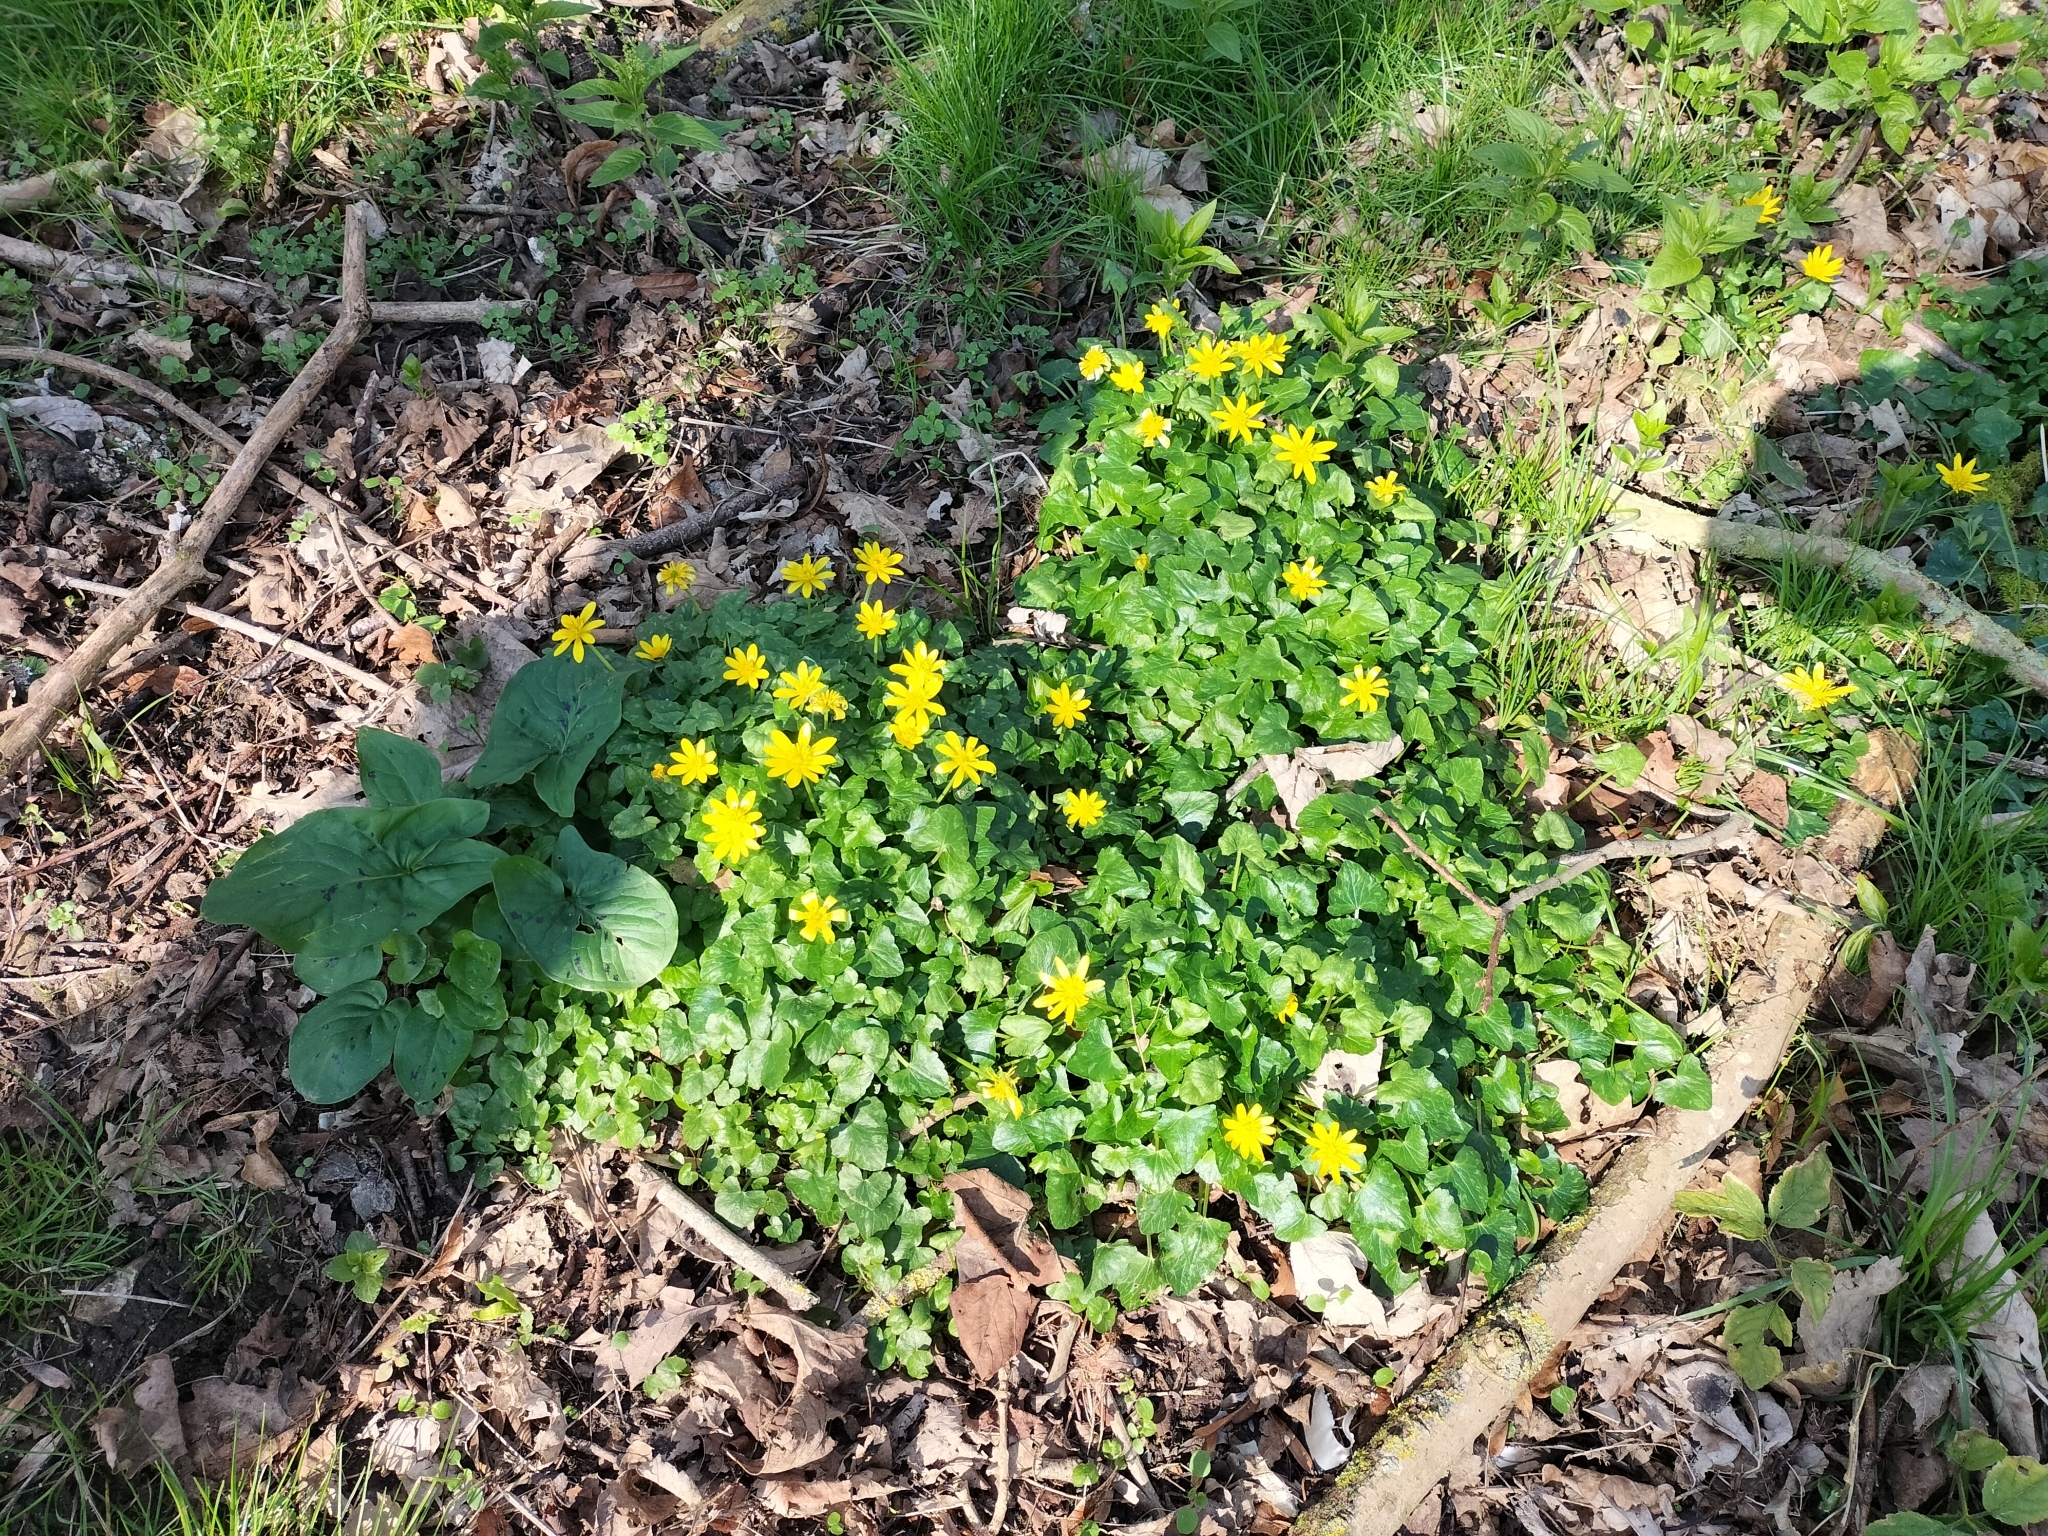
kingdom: Plantae
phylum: Tracheophyta
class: Magnoliopsida
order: Ranunculales
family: Ranunculaceae
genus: Ficaria
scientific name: Ficaria verna
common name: Lesser celandine
